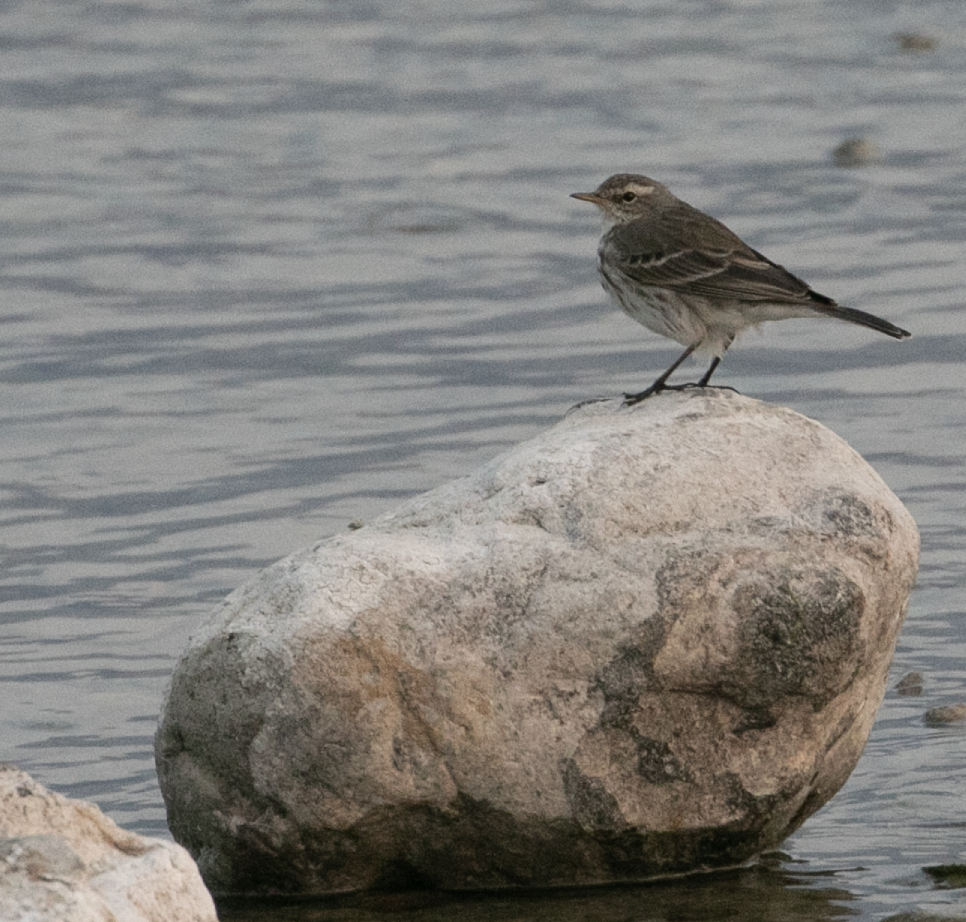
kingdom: Animalia
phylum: Chordata
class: Aves
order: Passeriformes
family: Motacillidae
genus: Anthus
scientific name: Anthus spinoletta
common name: Water pipit
